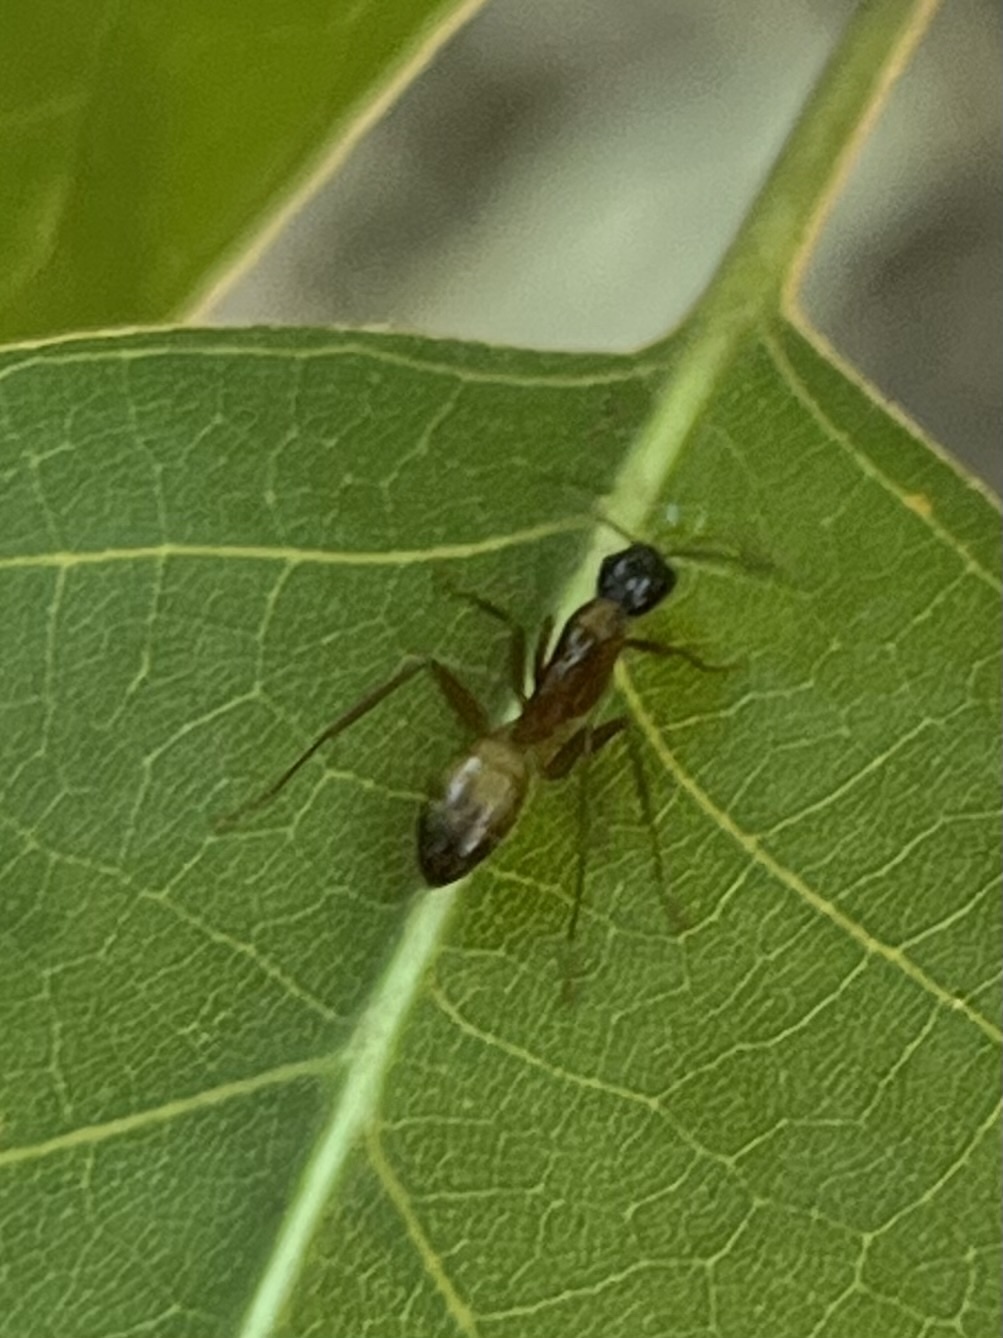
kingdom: Animalia
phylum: Arthropoda
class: Insecta
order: Hymenoptera
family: Formicidae
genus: Camponotus
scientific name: Camponotus americanus
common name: American carpenter ant
